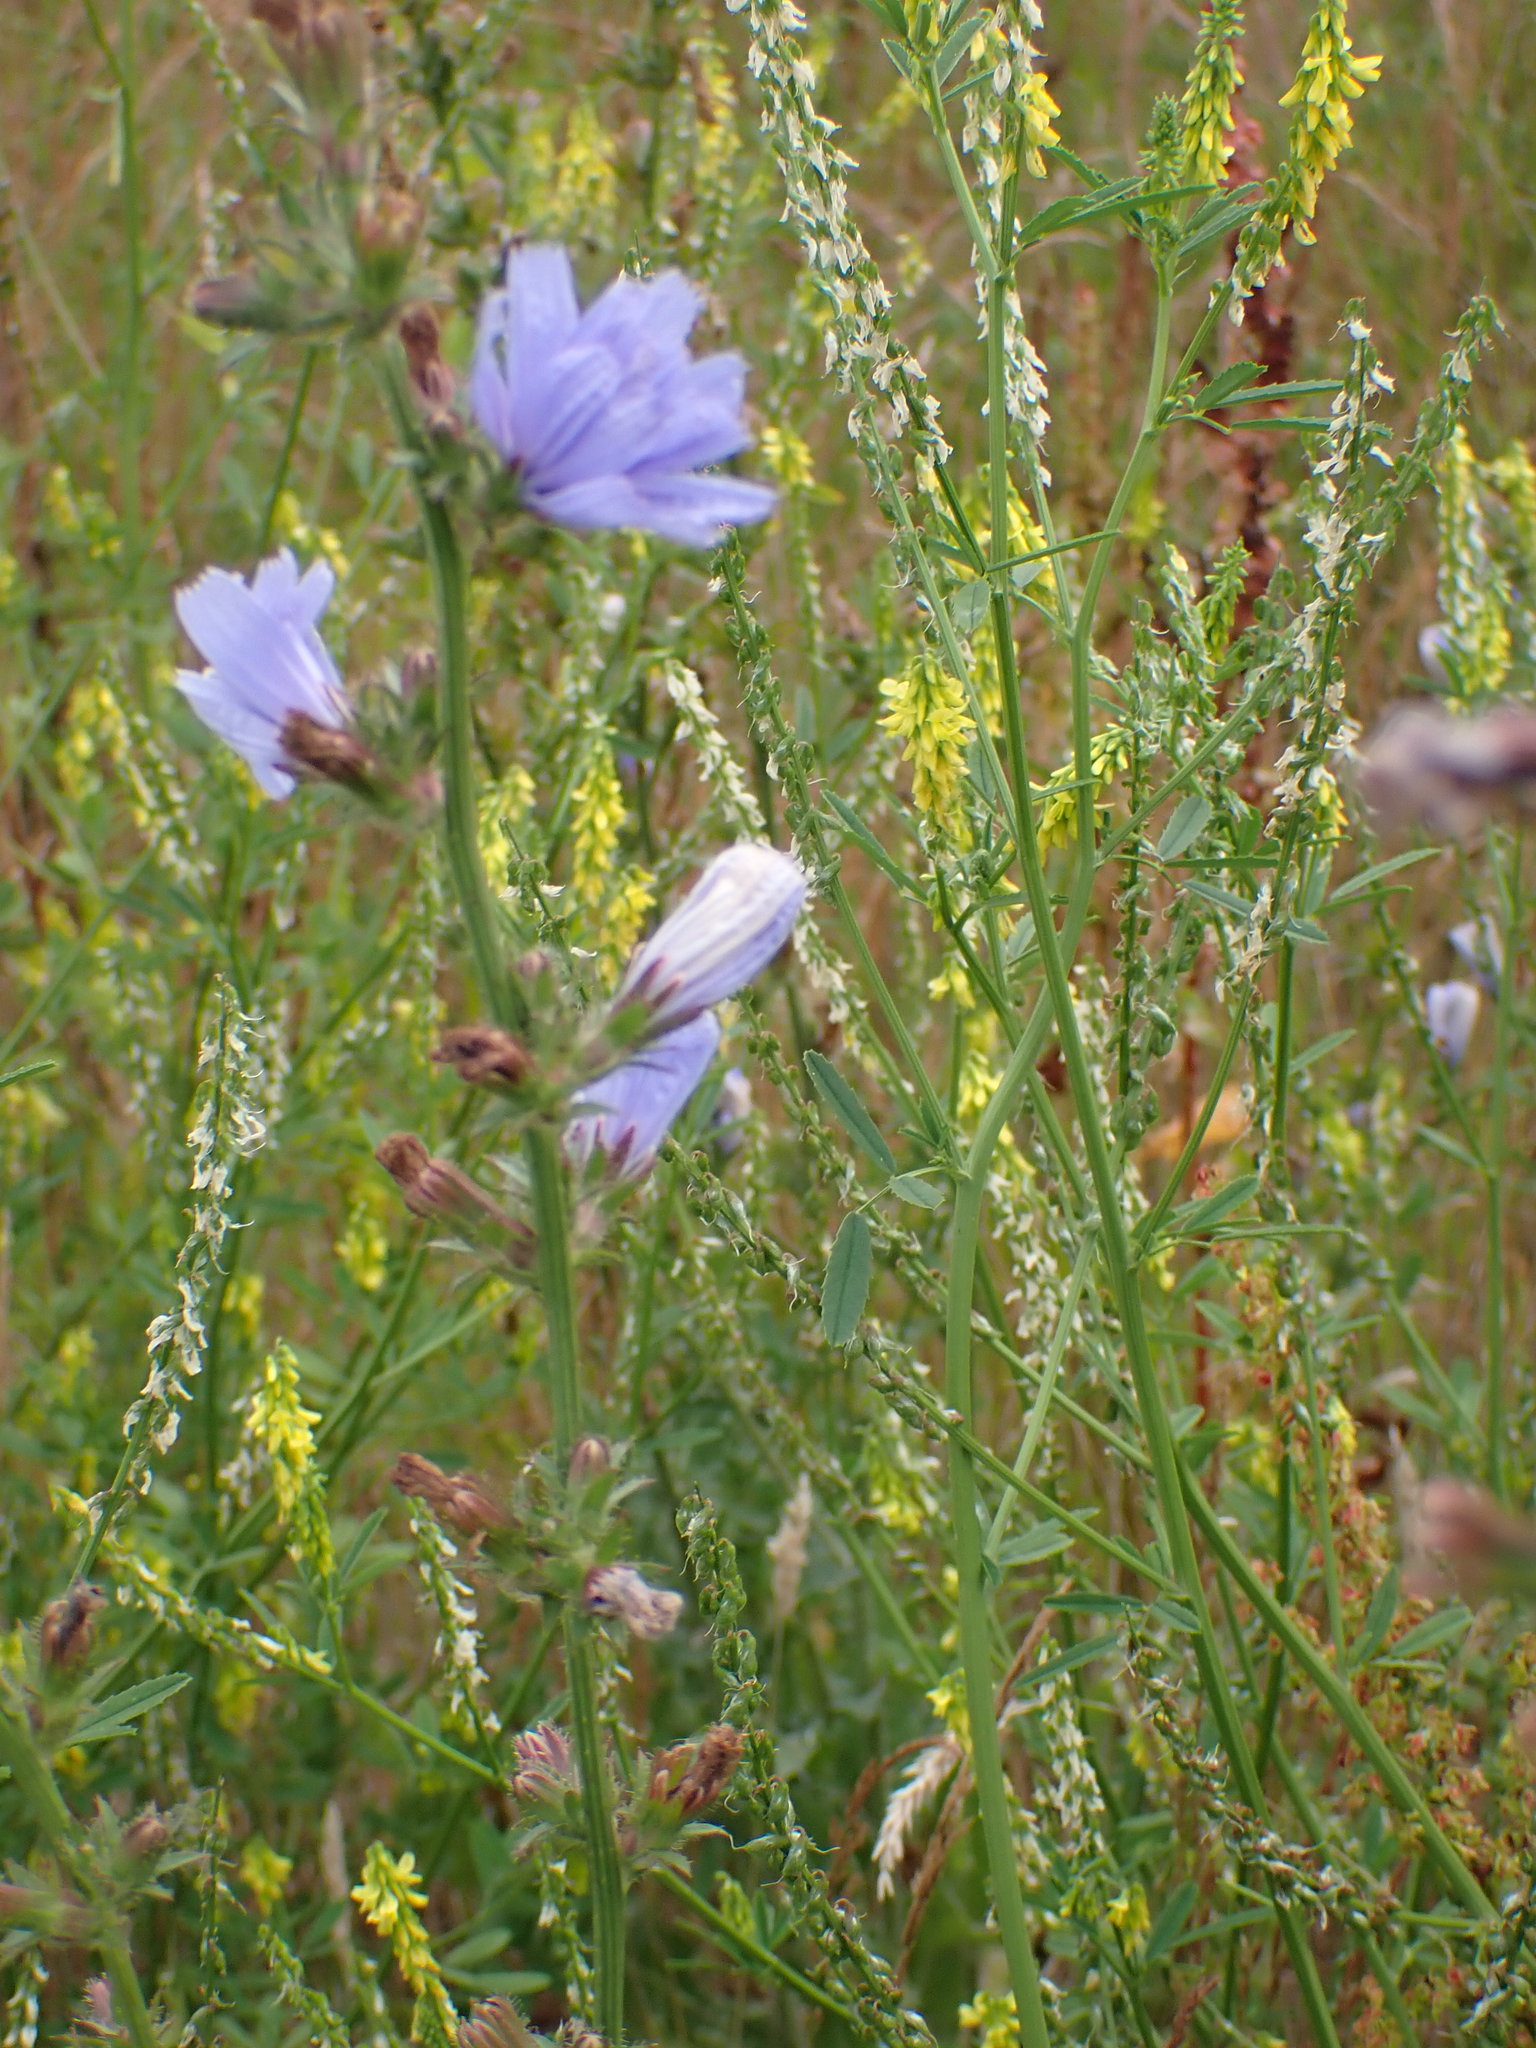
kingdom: Plantae
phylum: Tracheophyta
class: Magnoliopsida
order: Asterales
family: Asteraceae
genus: Cichorium
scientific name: Cichorium intybus
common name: Chicory
